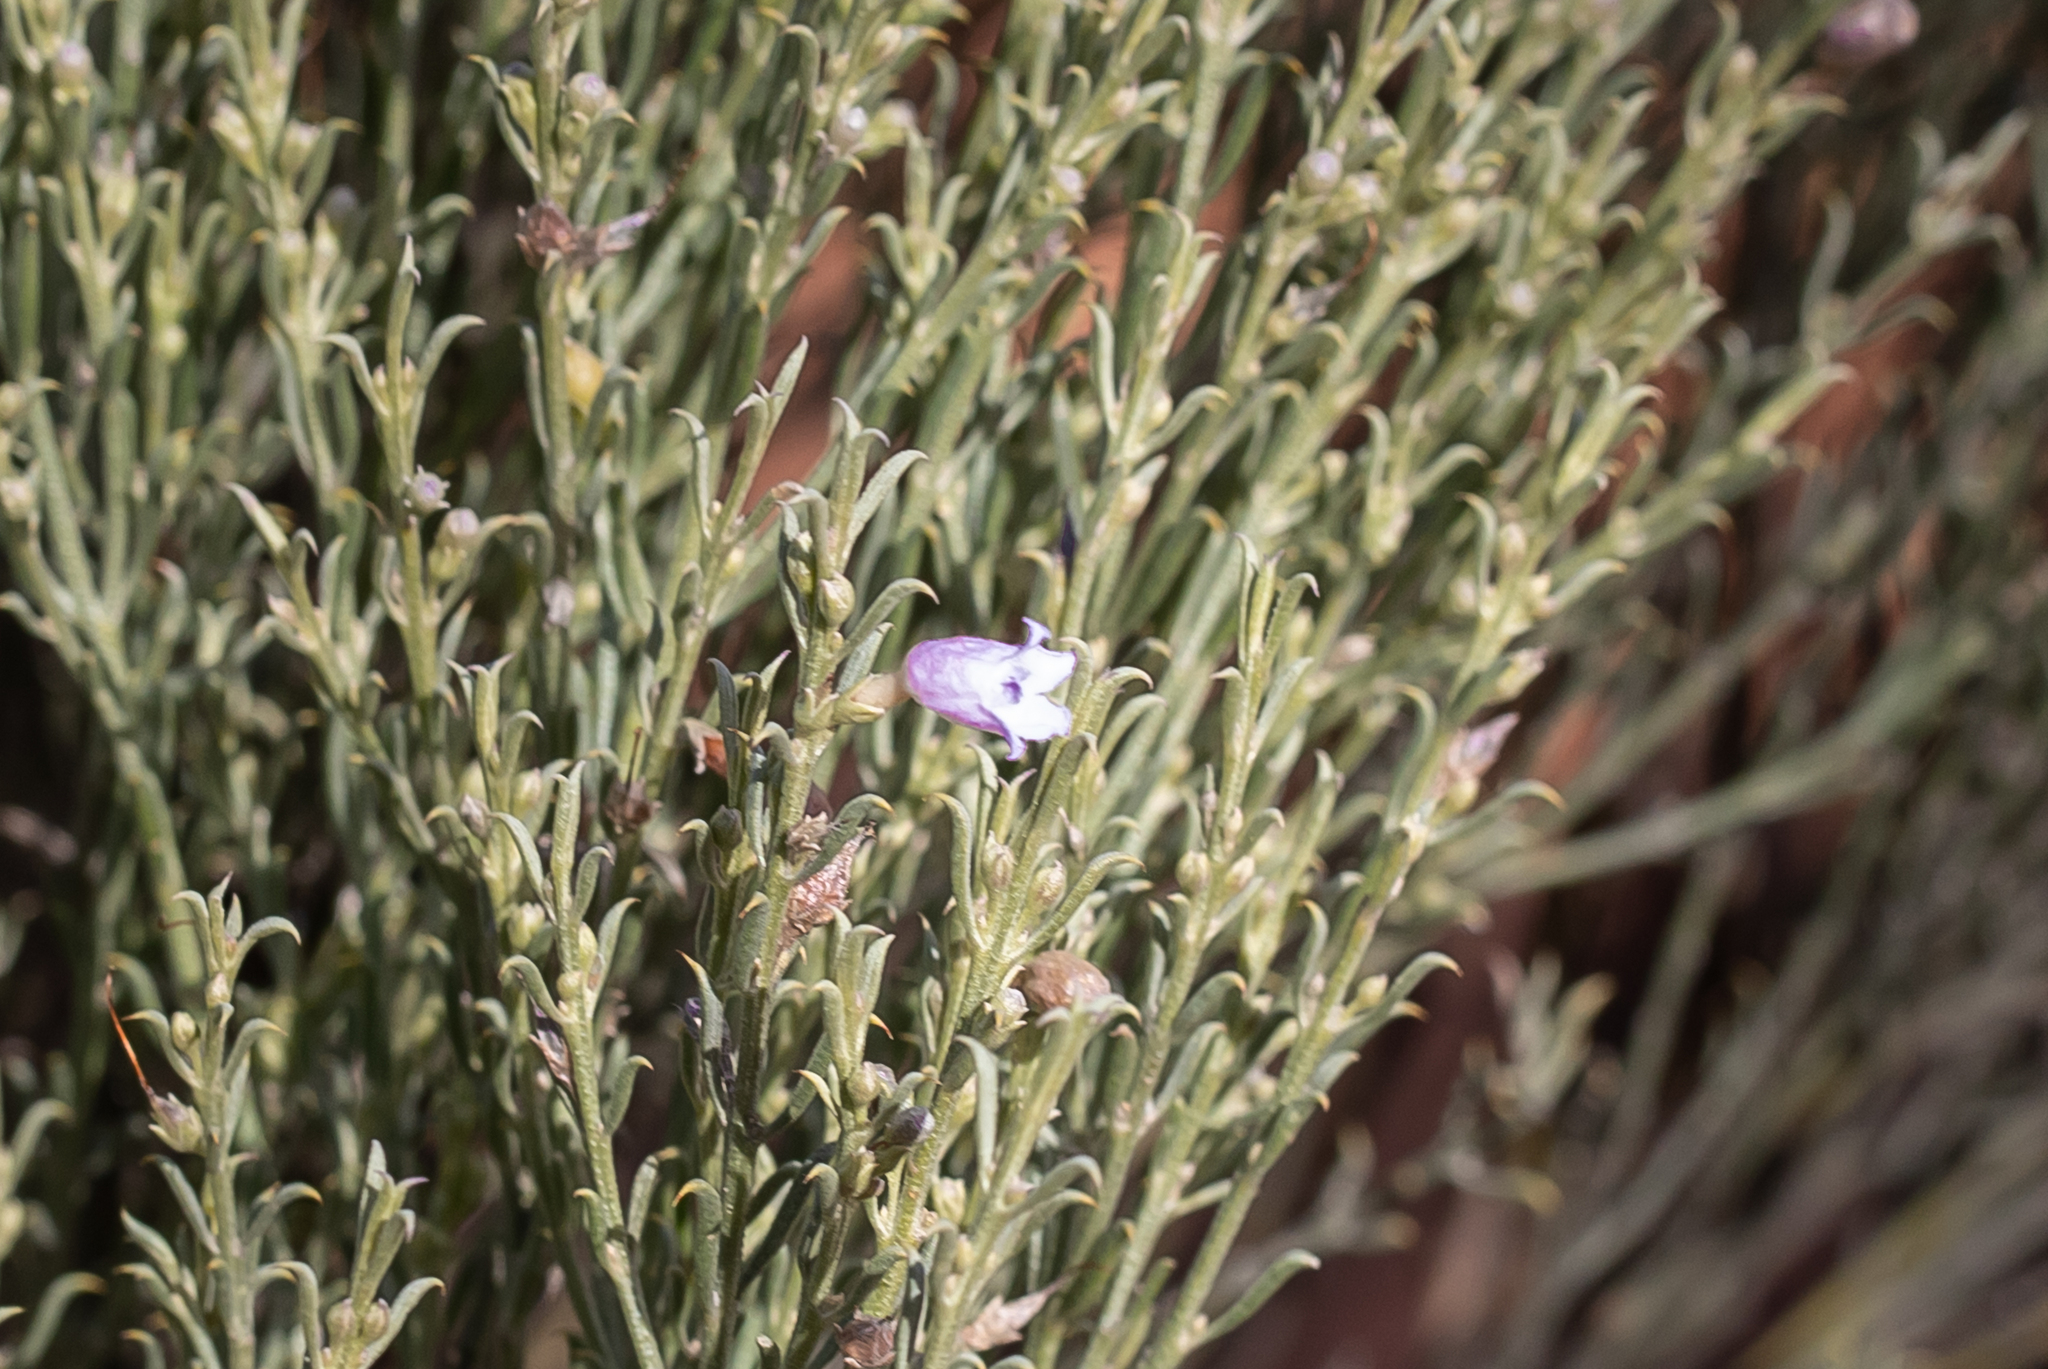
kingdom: Plantae
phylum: Tracheophyta
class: Magnoliopsida
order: Lamiales
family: Scrophulariaceae
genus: Eremophila
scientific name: Eremophila scoparia
